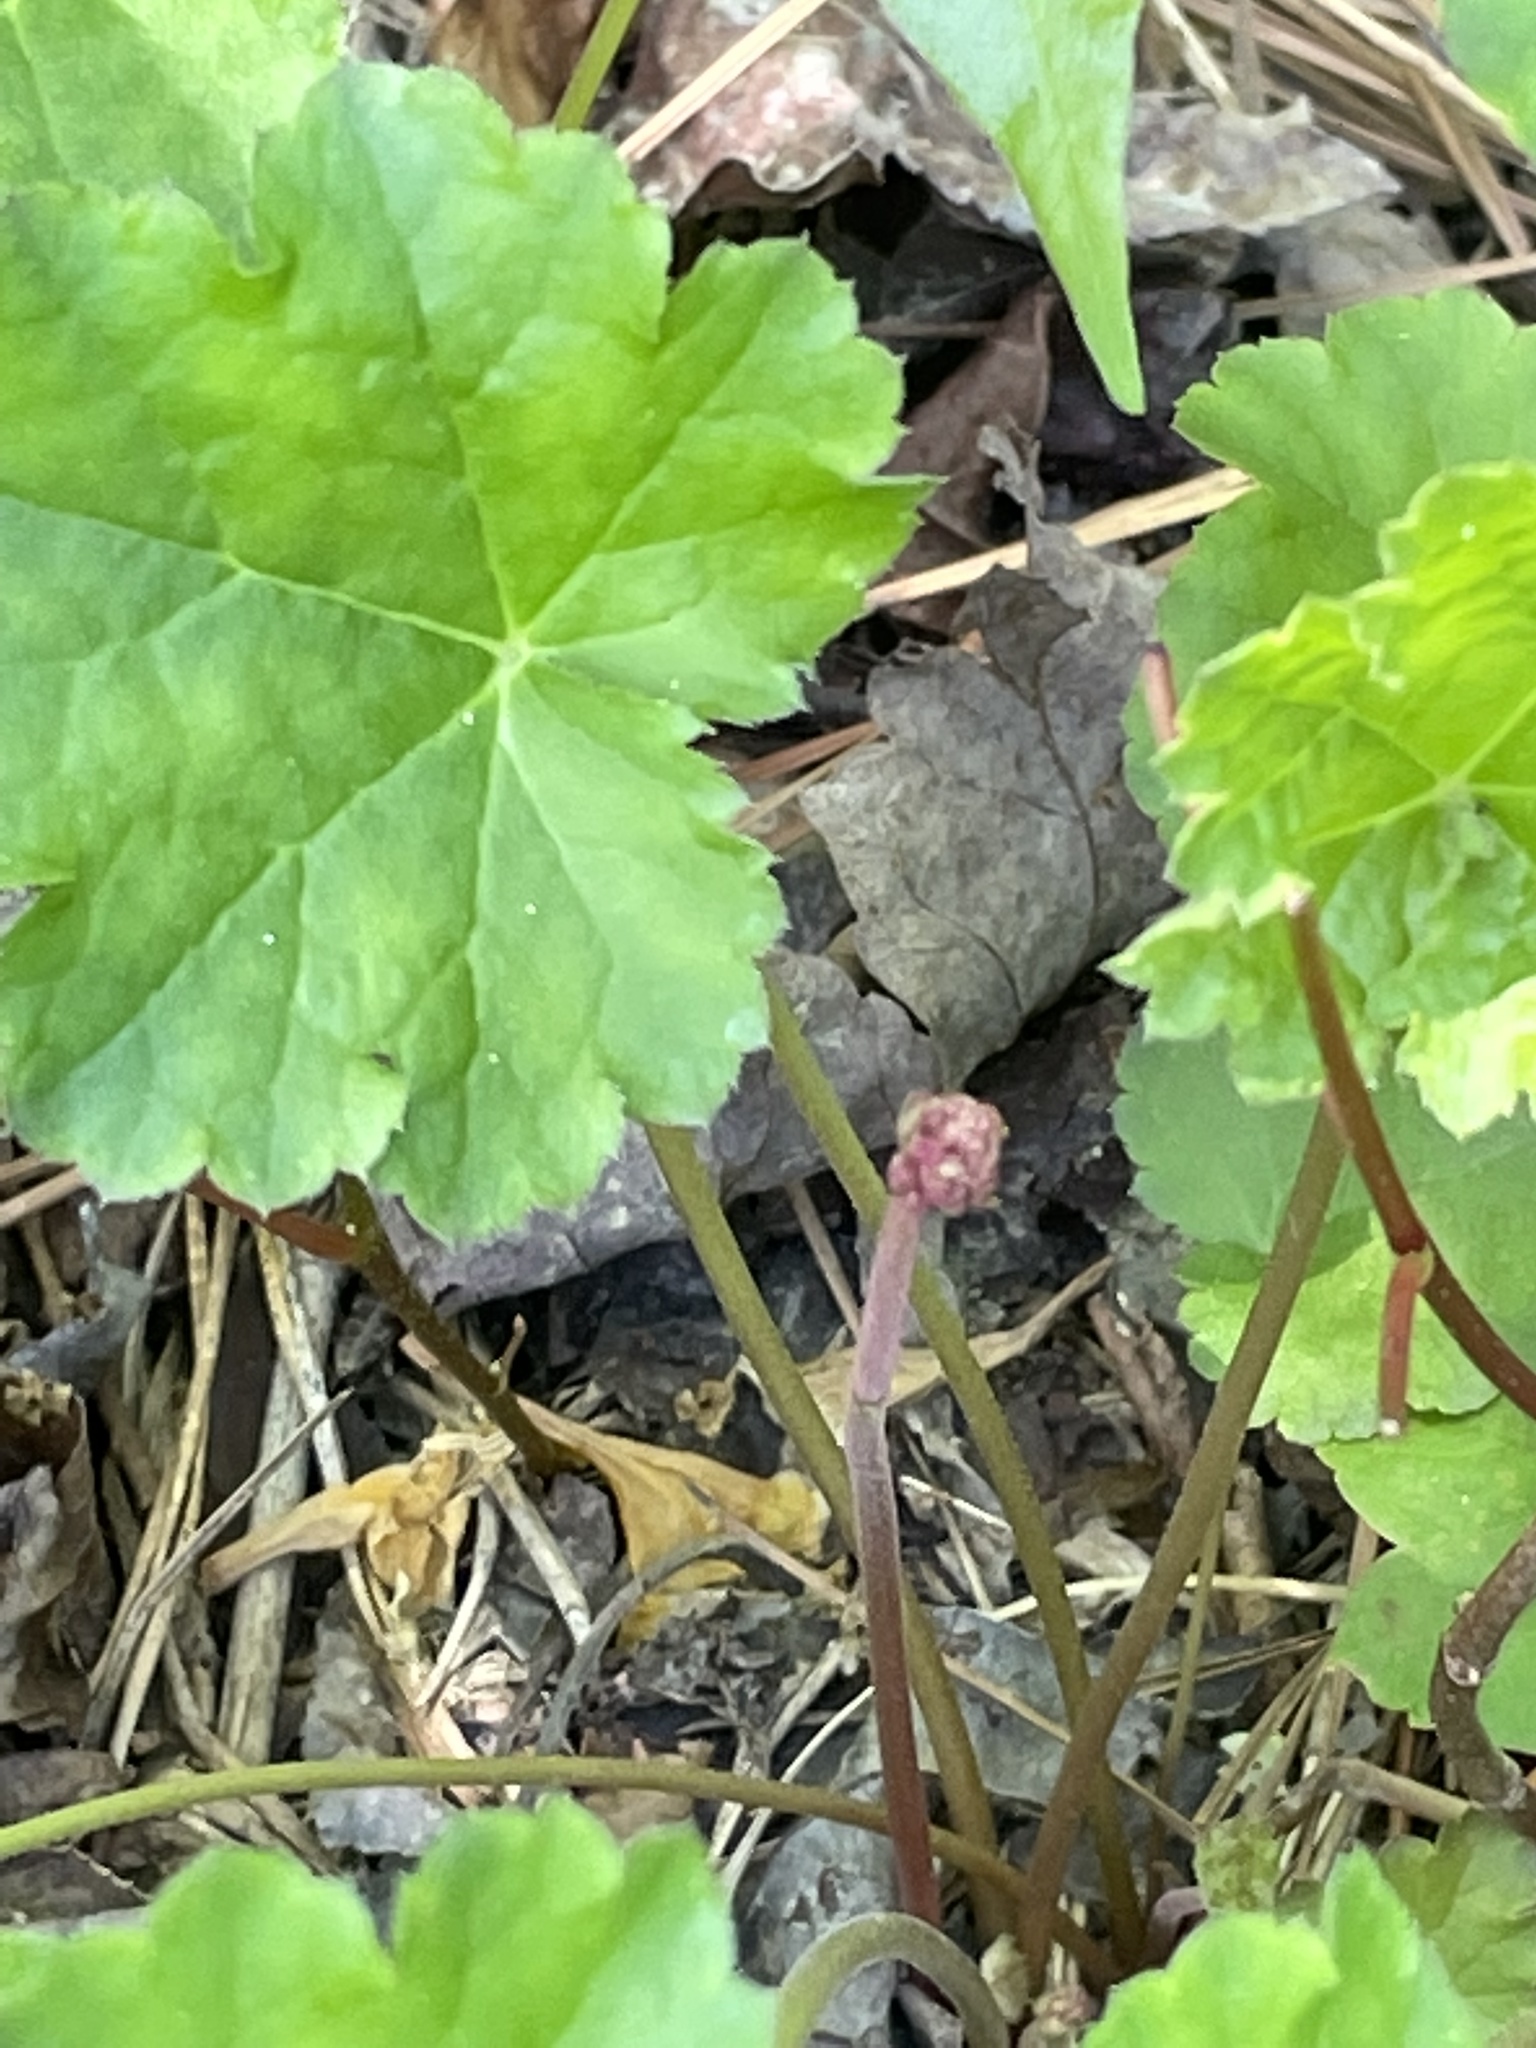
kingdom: Plantae
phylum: Tracheophyta
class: Magnoliopsida
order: Saxifragales
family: Saxifragaceae
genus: Heuchera
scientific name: Heuchera caroliniana
